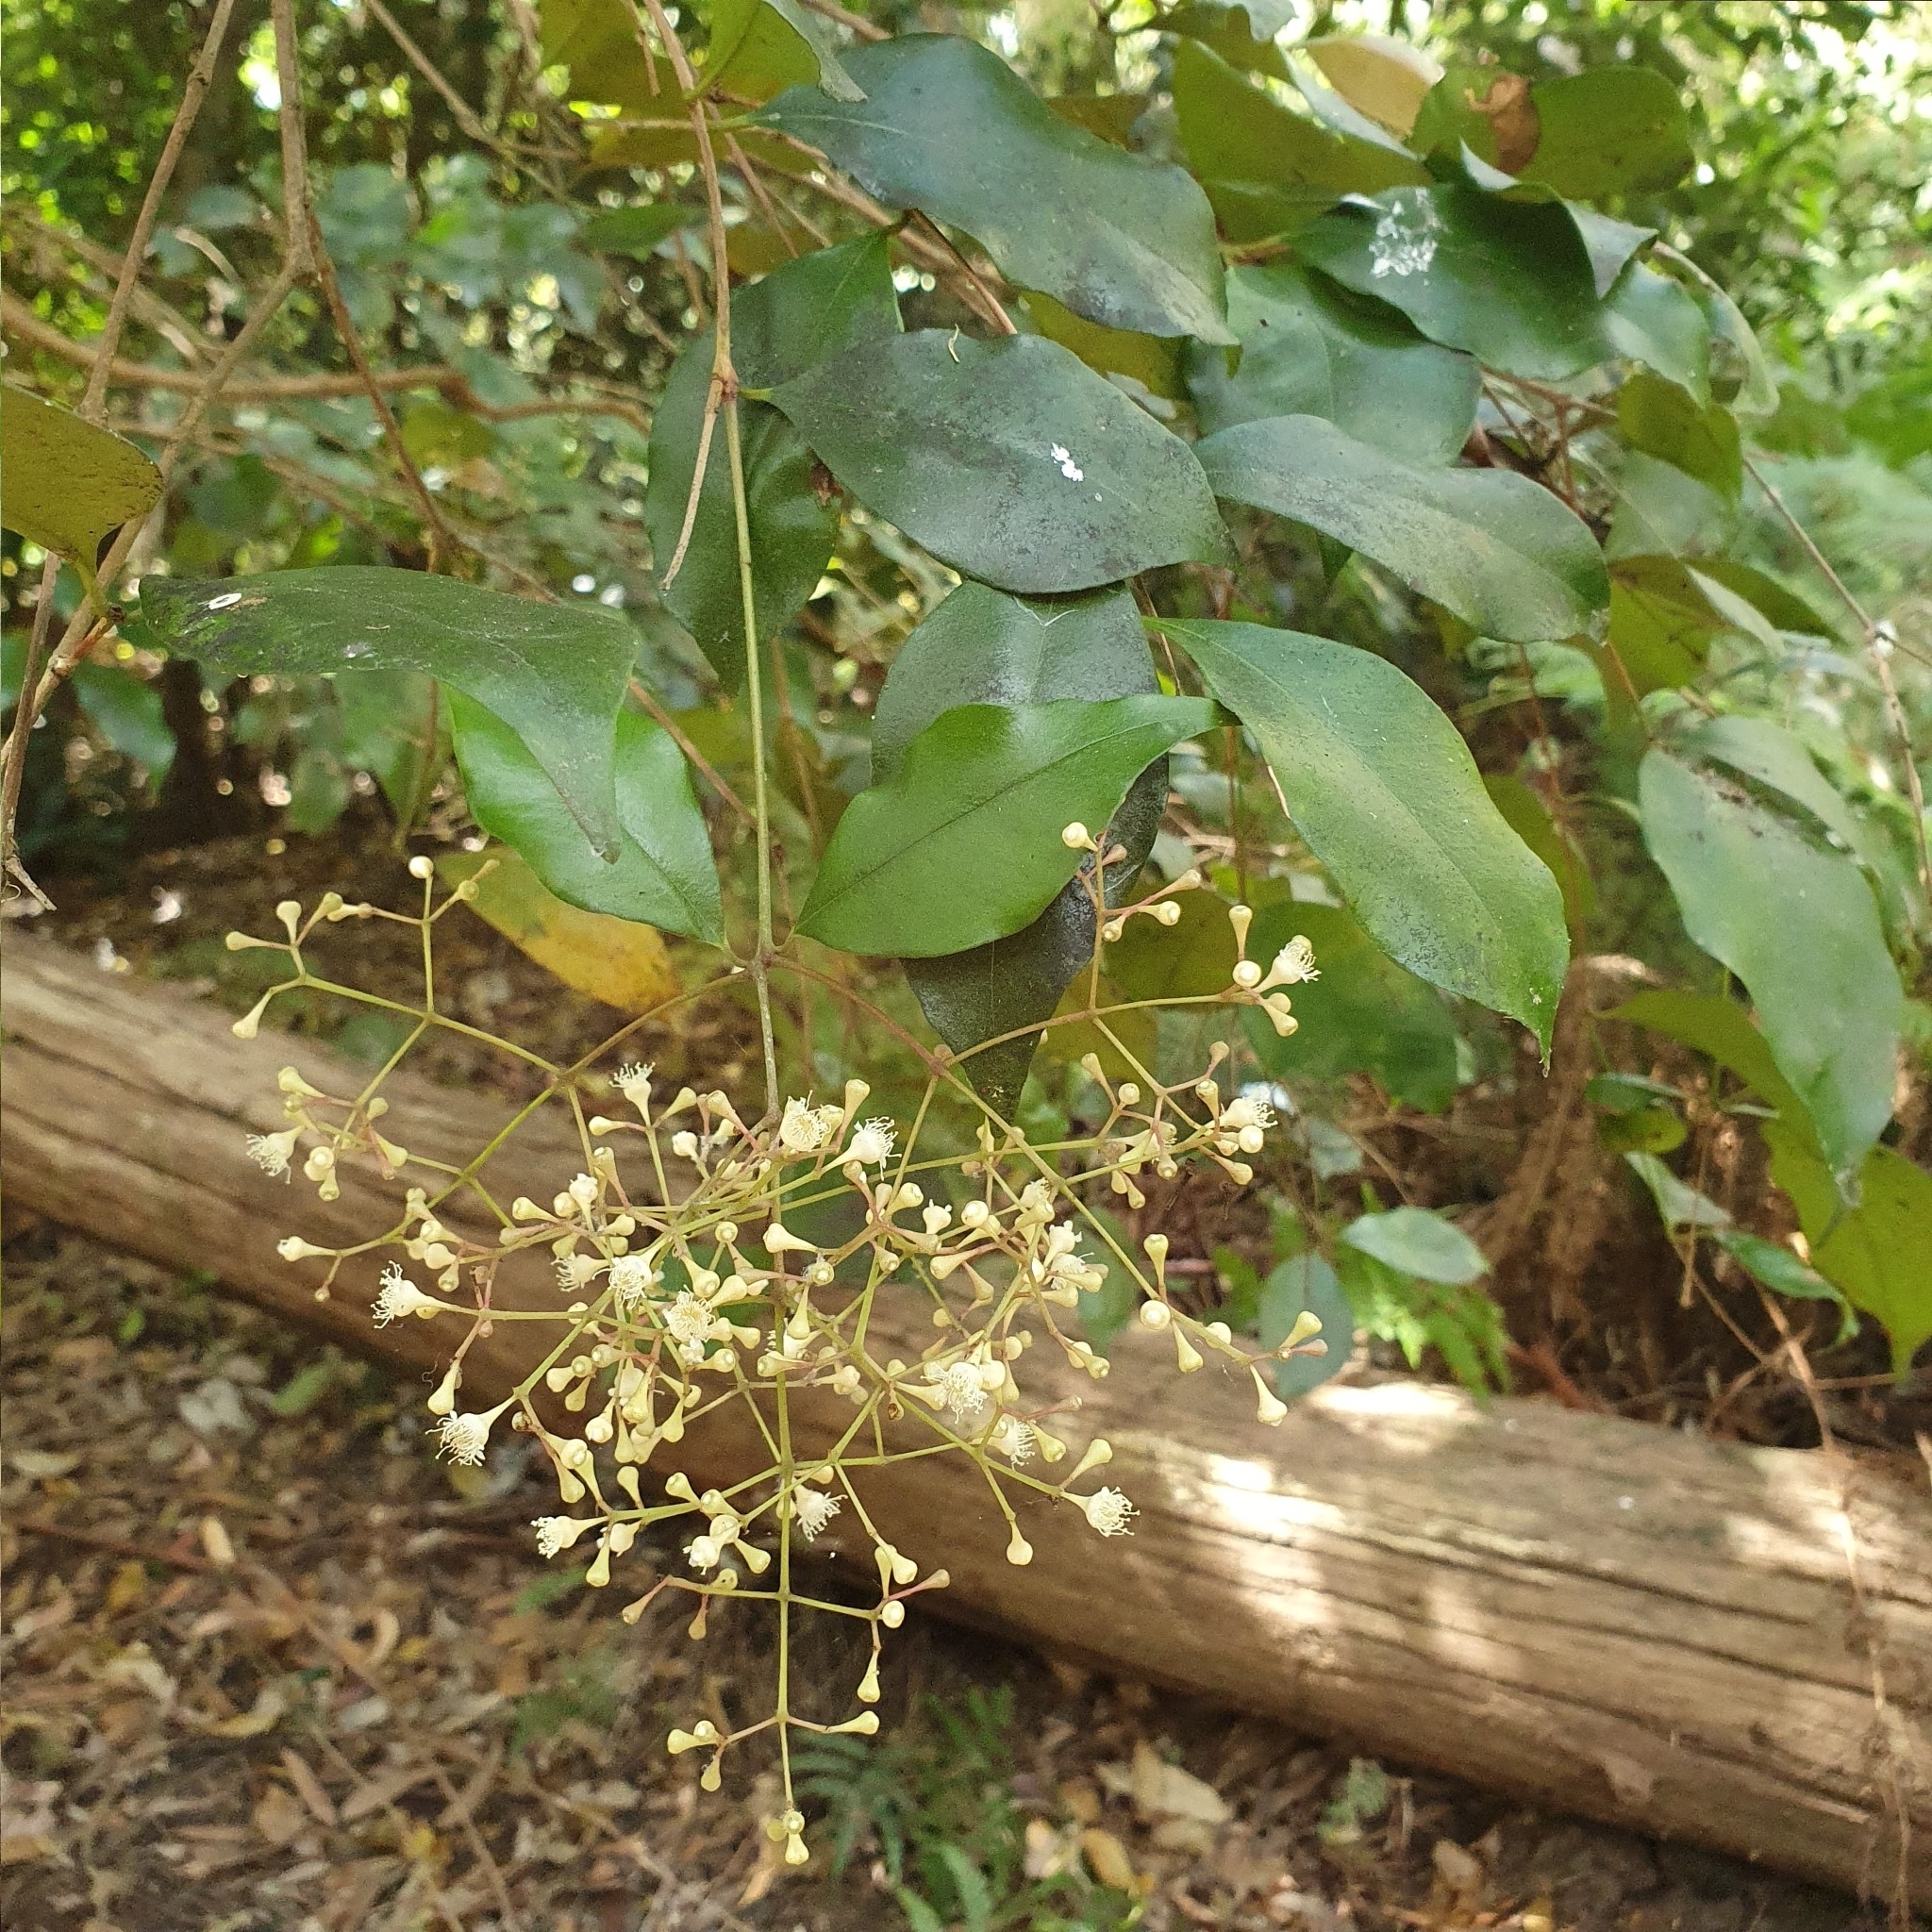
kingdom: Plantae
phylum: Tracheophyta
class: Magnoliopsida
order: Myrtales
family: Myrtaceae
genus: Syzygium
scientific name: Syzygium smithii
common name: Lilly-pilly
